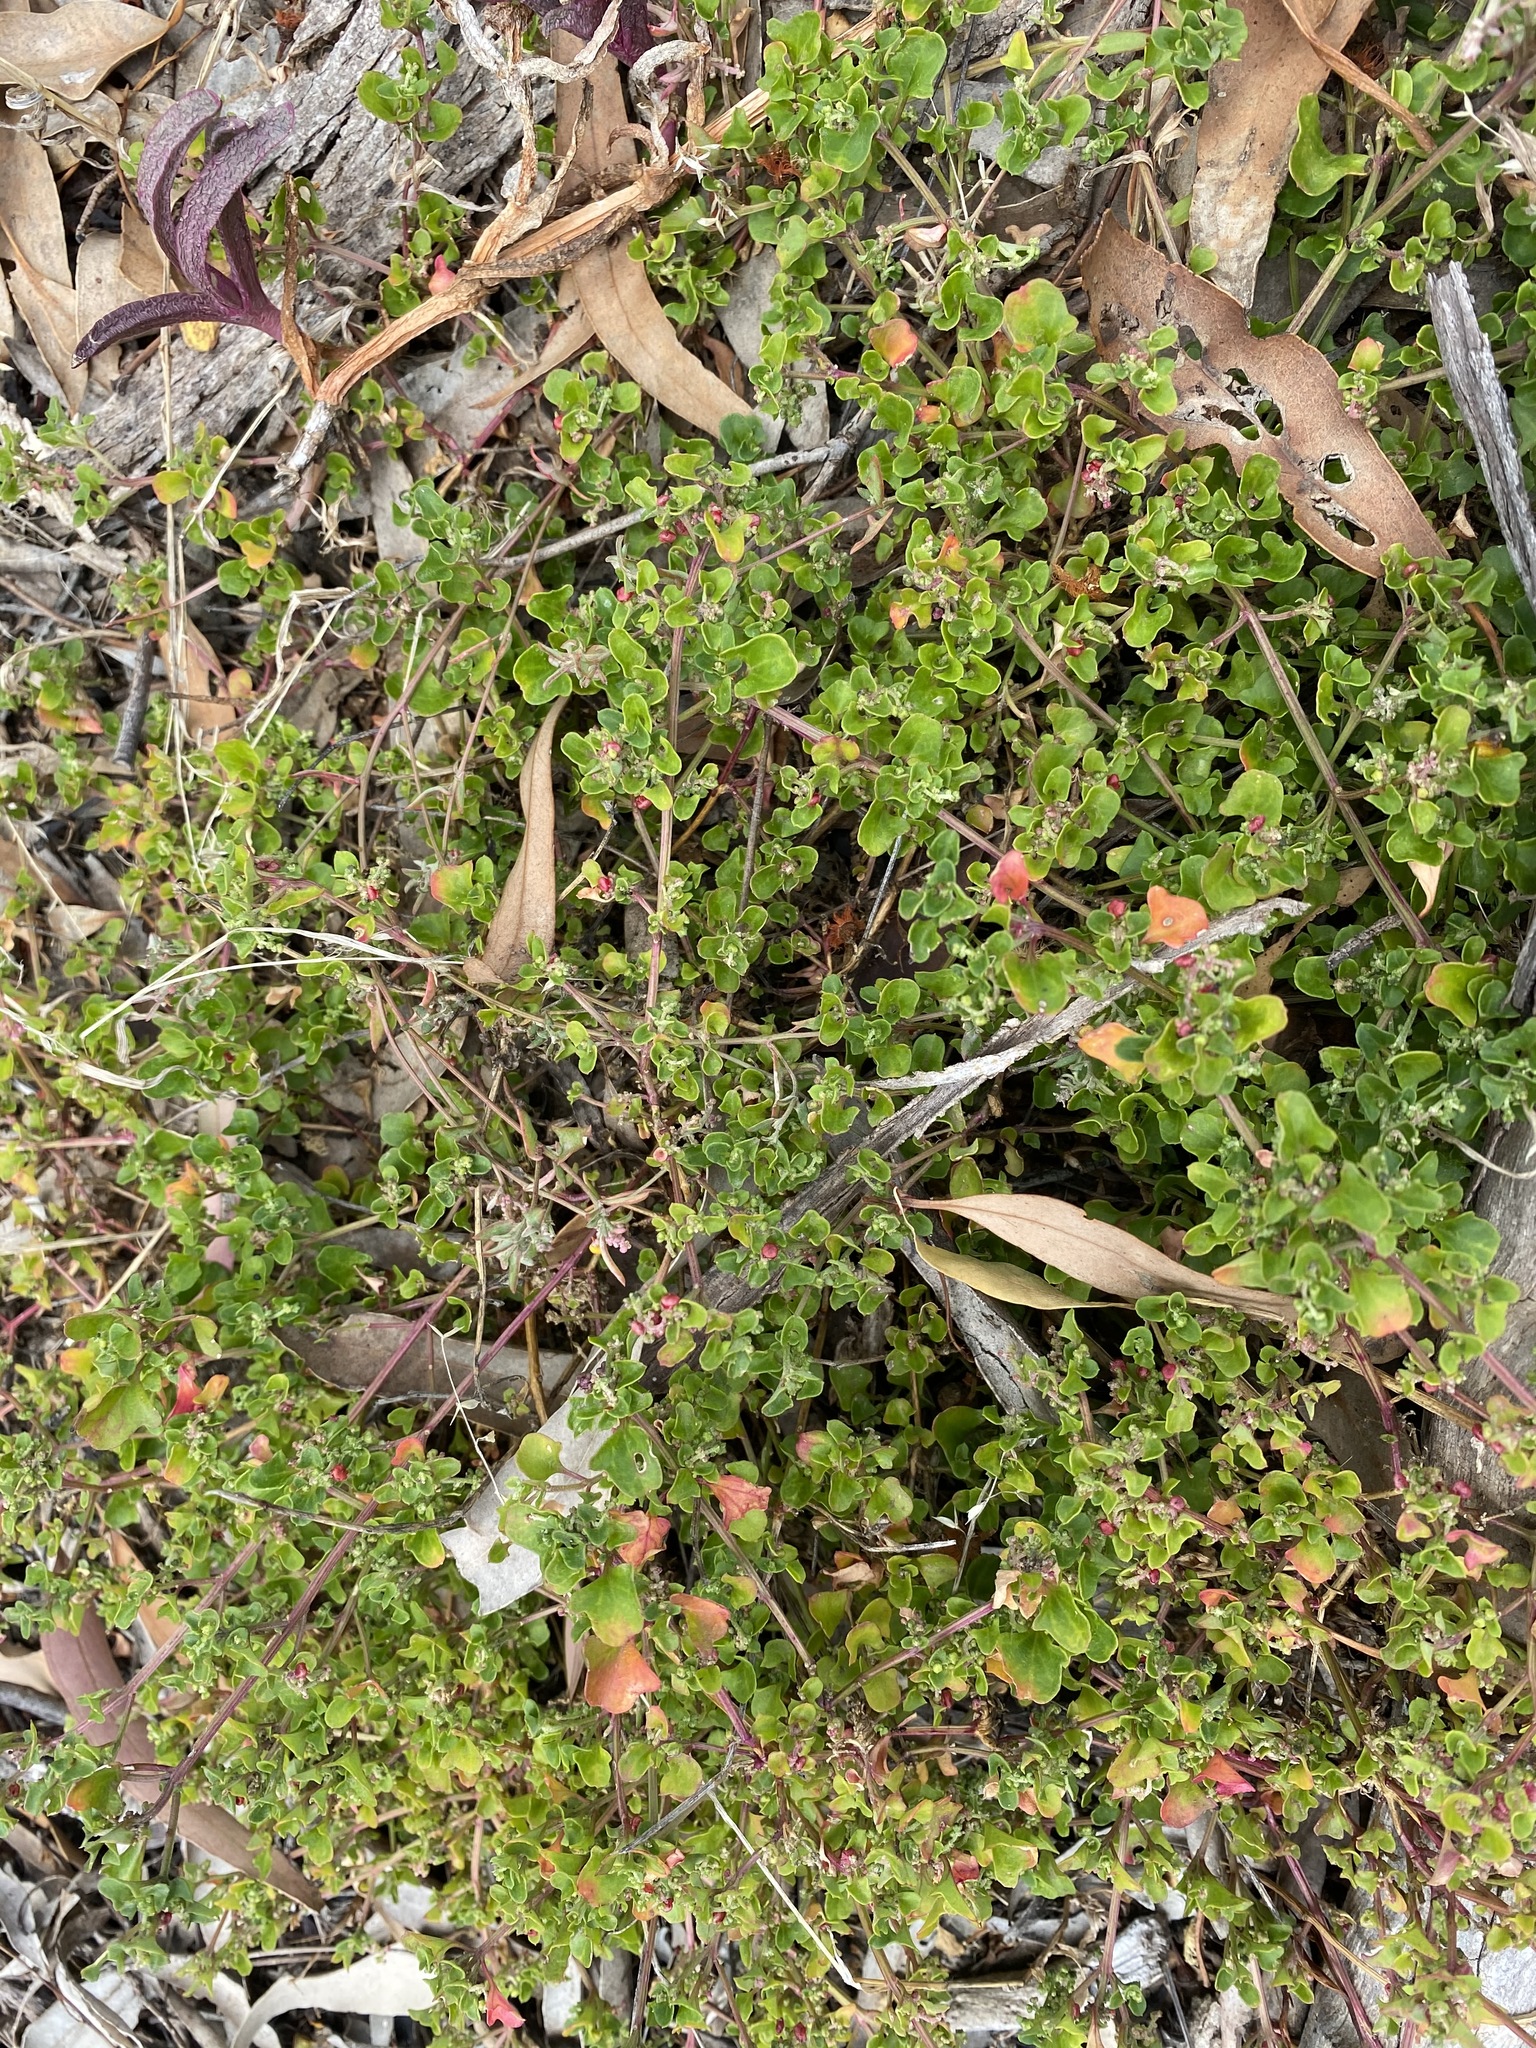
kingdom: Plantae
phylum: Tracheophyta
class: Magnoliopsida
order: Caryophyllales
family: Amaranthaceae
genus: Chenopodium
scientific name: Chenopodium robertianum
